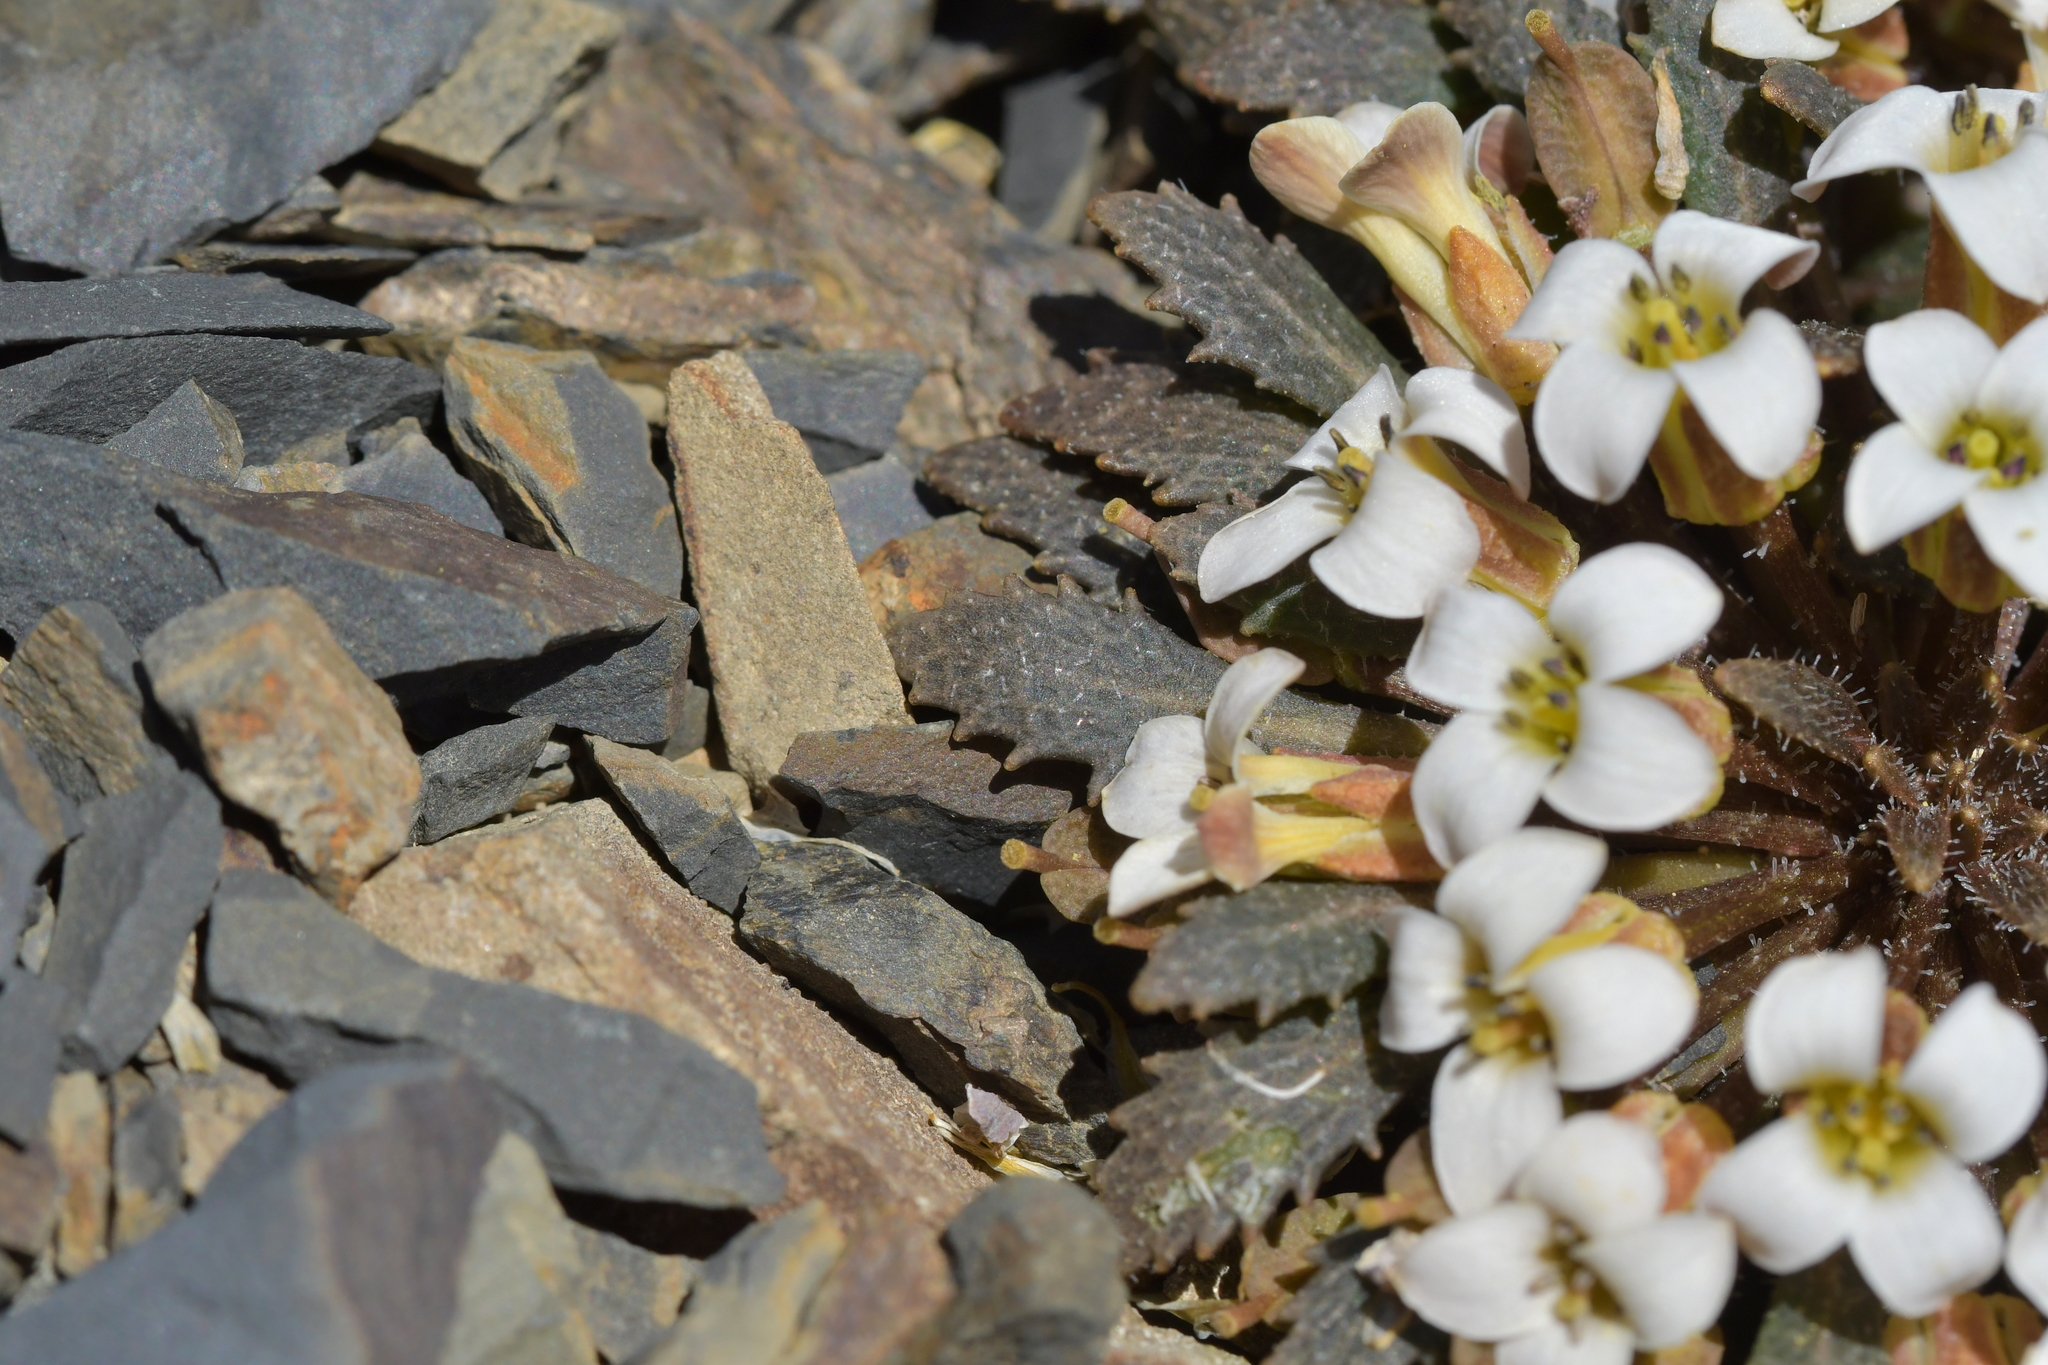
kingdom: Plantae
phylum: Tracheophyta
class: Magnoliopsida
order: Brassicales
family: Brassicaceae
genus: Notothlaspi
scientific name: Notothlaspi australe
